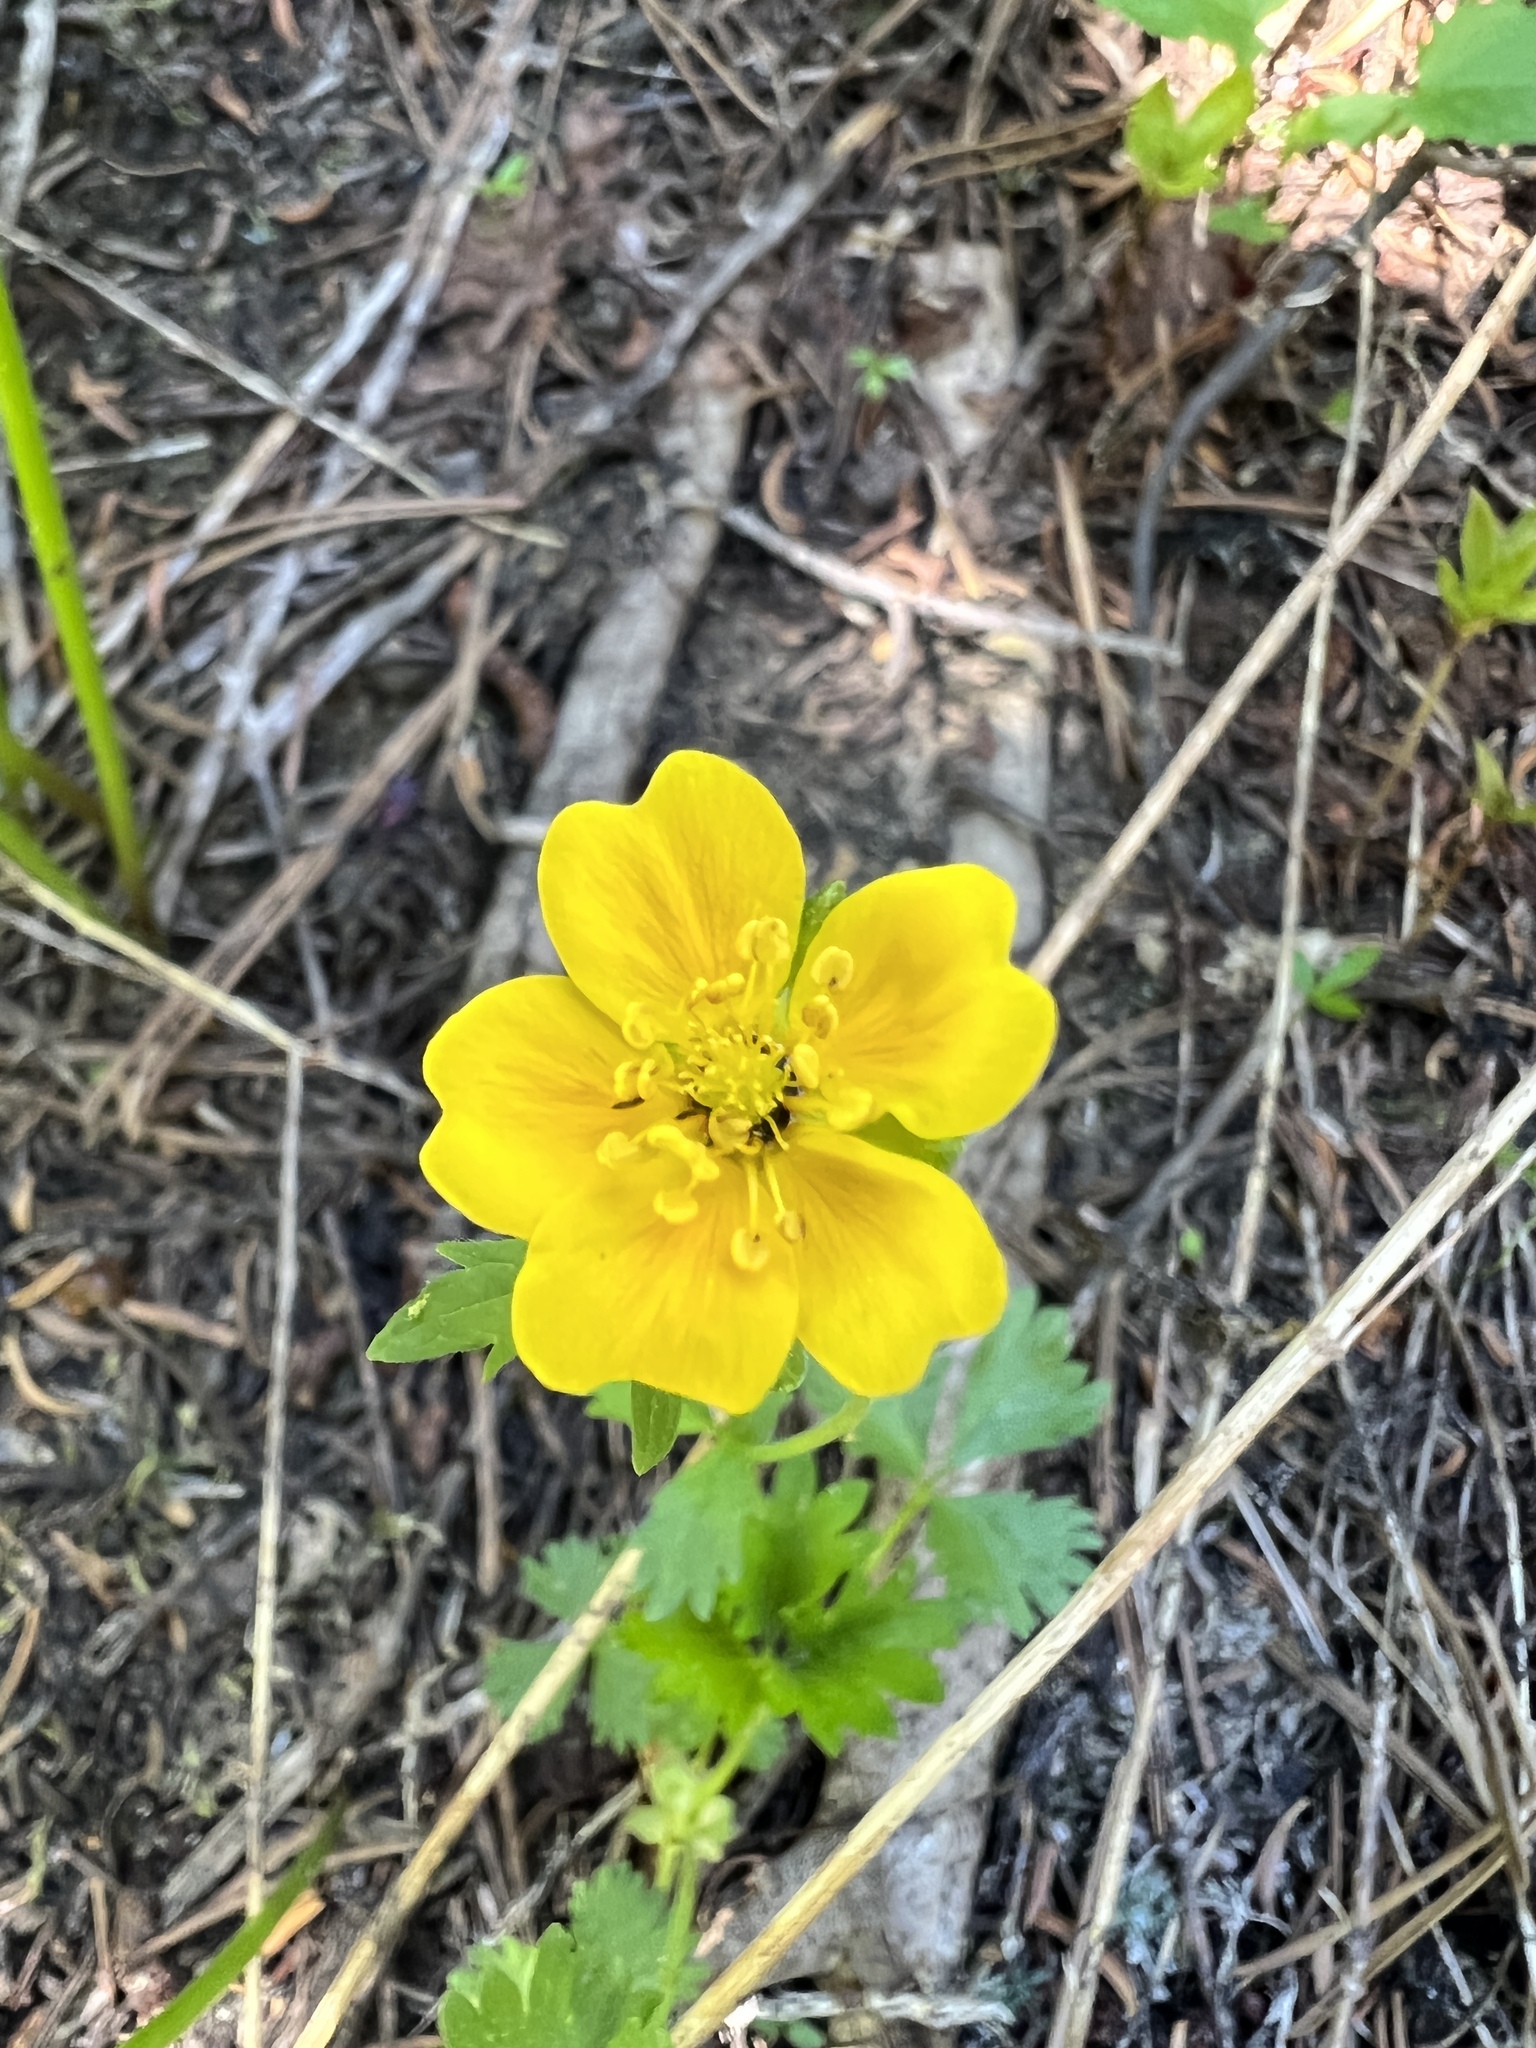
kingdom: Plantae
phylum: Tracheophyta
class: Magnoliopsida
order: Rosales
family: Rosaceae
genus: Potentilla
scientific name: Potentilla flabellifolia
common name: Mount rainier cinquefoil
